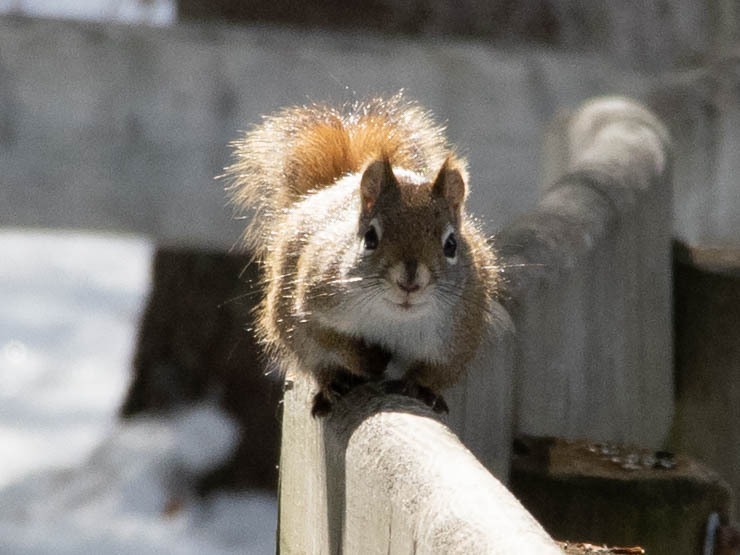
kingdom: Animalia
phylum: Chordata
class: Mammalia
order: Rodentia
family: Sciuridae
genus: Tamiasciurus
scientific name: Tamiasciurus hudsonicus
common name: Red squirrel
